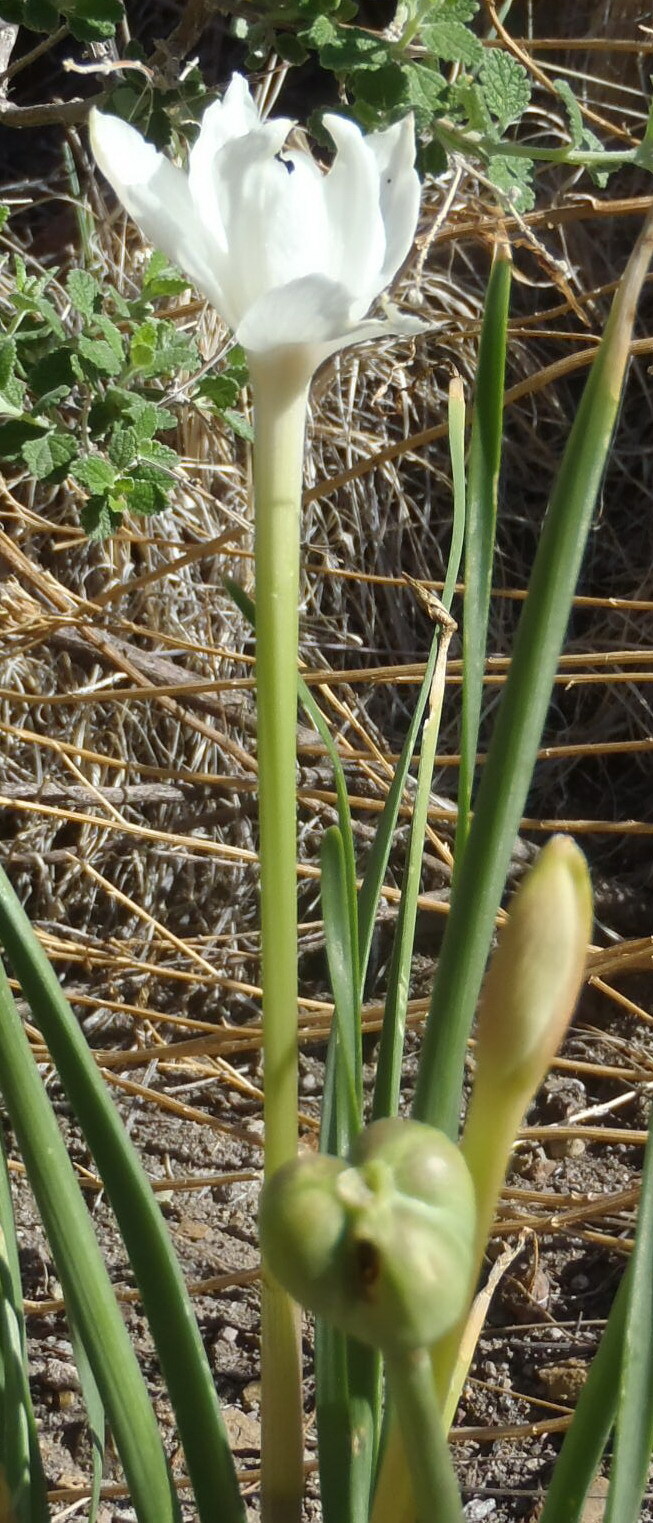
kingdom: Plantae
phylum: Tracheophyta
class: Liliopsida
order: Asparagales
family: Amaryllidaceae
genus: Zephyranthes
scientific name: Zephyranthes chlorosolen
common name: Evening rain-lily
